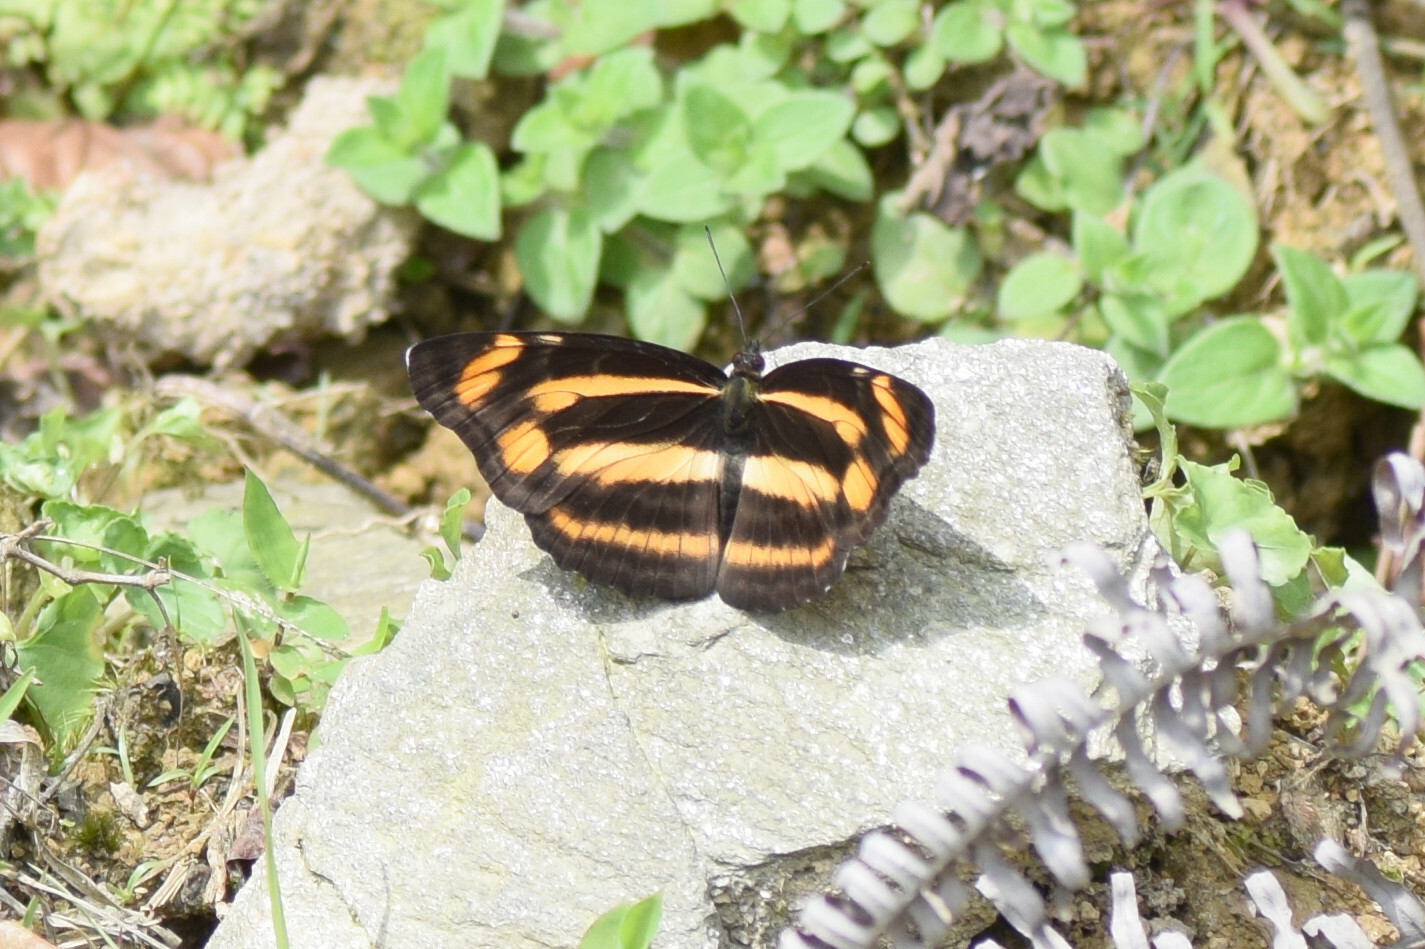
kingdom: Animalia
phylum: Arthropoda
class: Insecta
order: Lepidoptera
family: Nymphalidae
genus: Neptis
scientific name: Neptis radha
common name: Great yellow sailer
